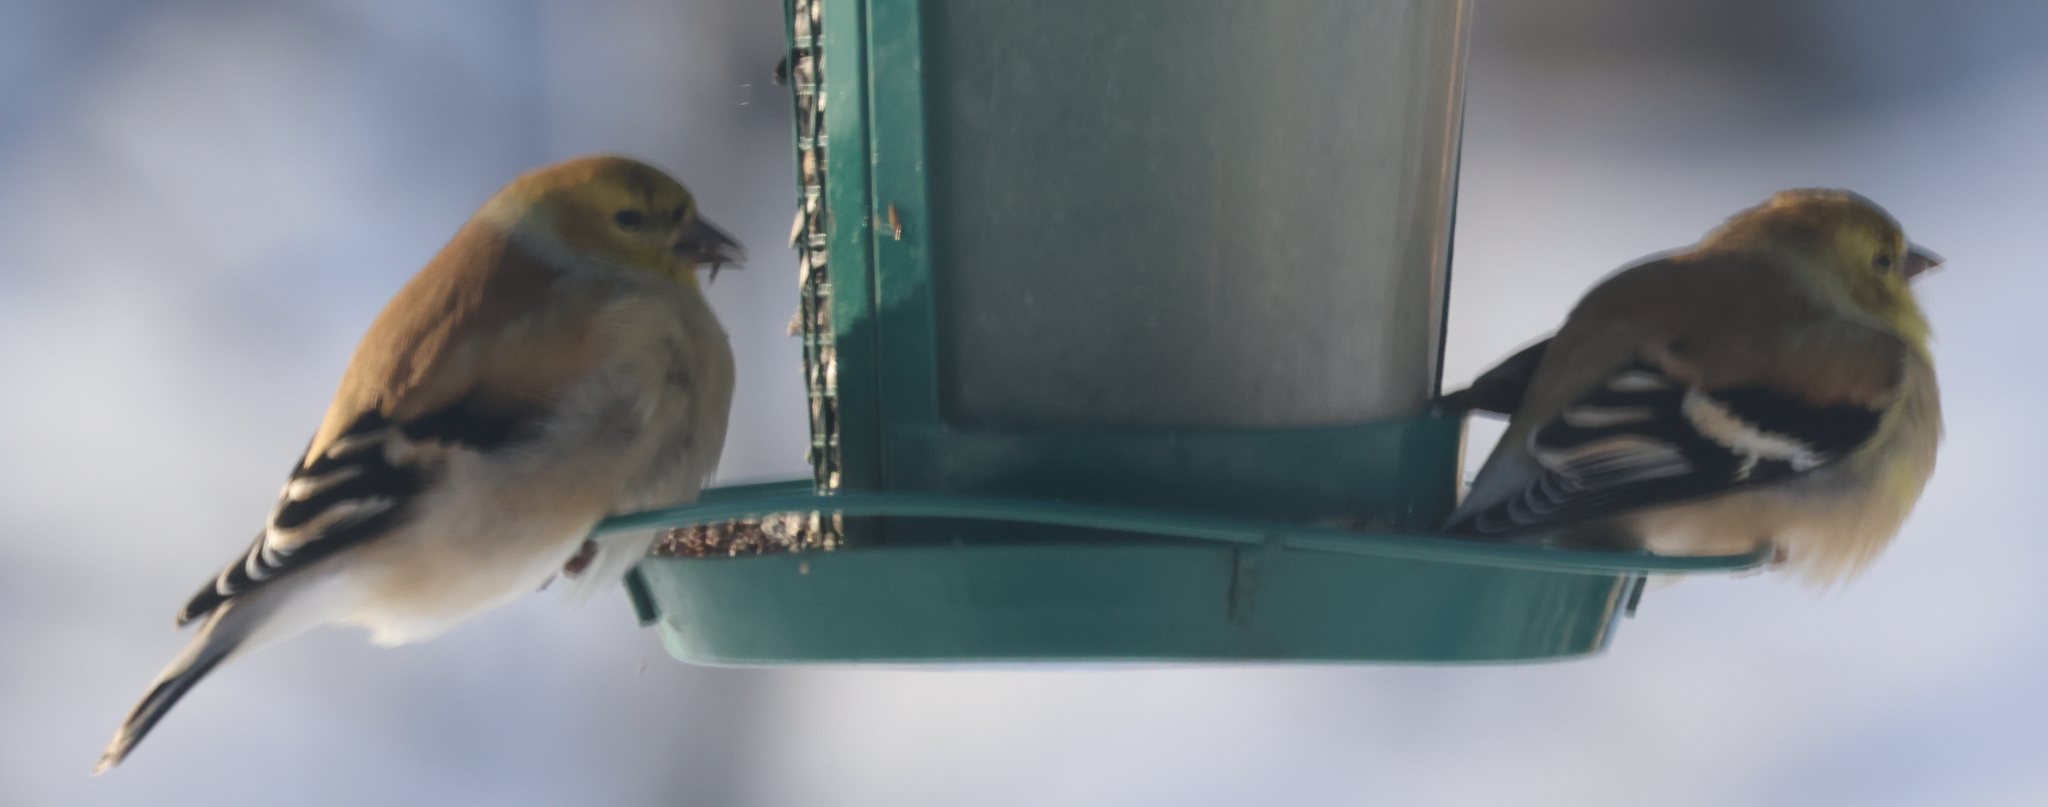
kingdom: Animalia
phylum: Chordata
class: Aves
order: Passeriformes
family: Fringillidae
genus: Spinus
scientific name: Spinus tristis
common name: American goldfinch
